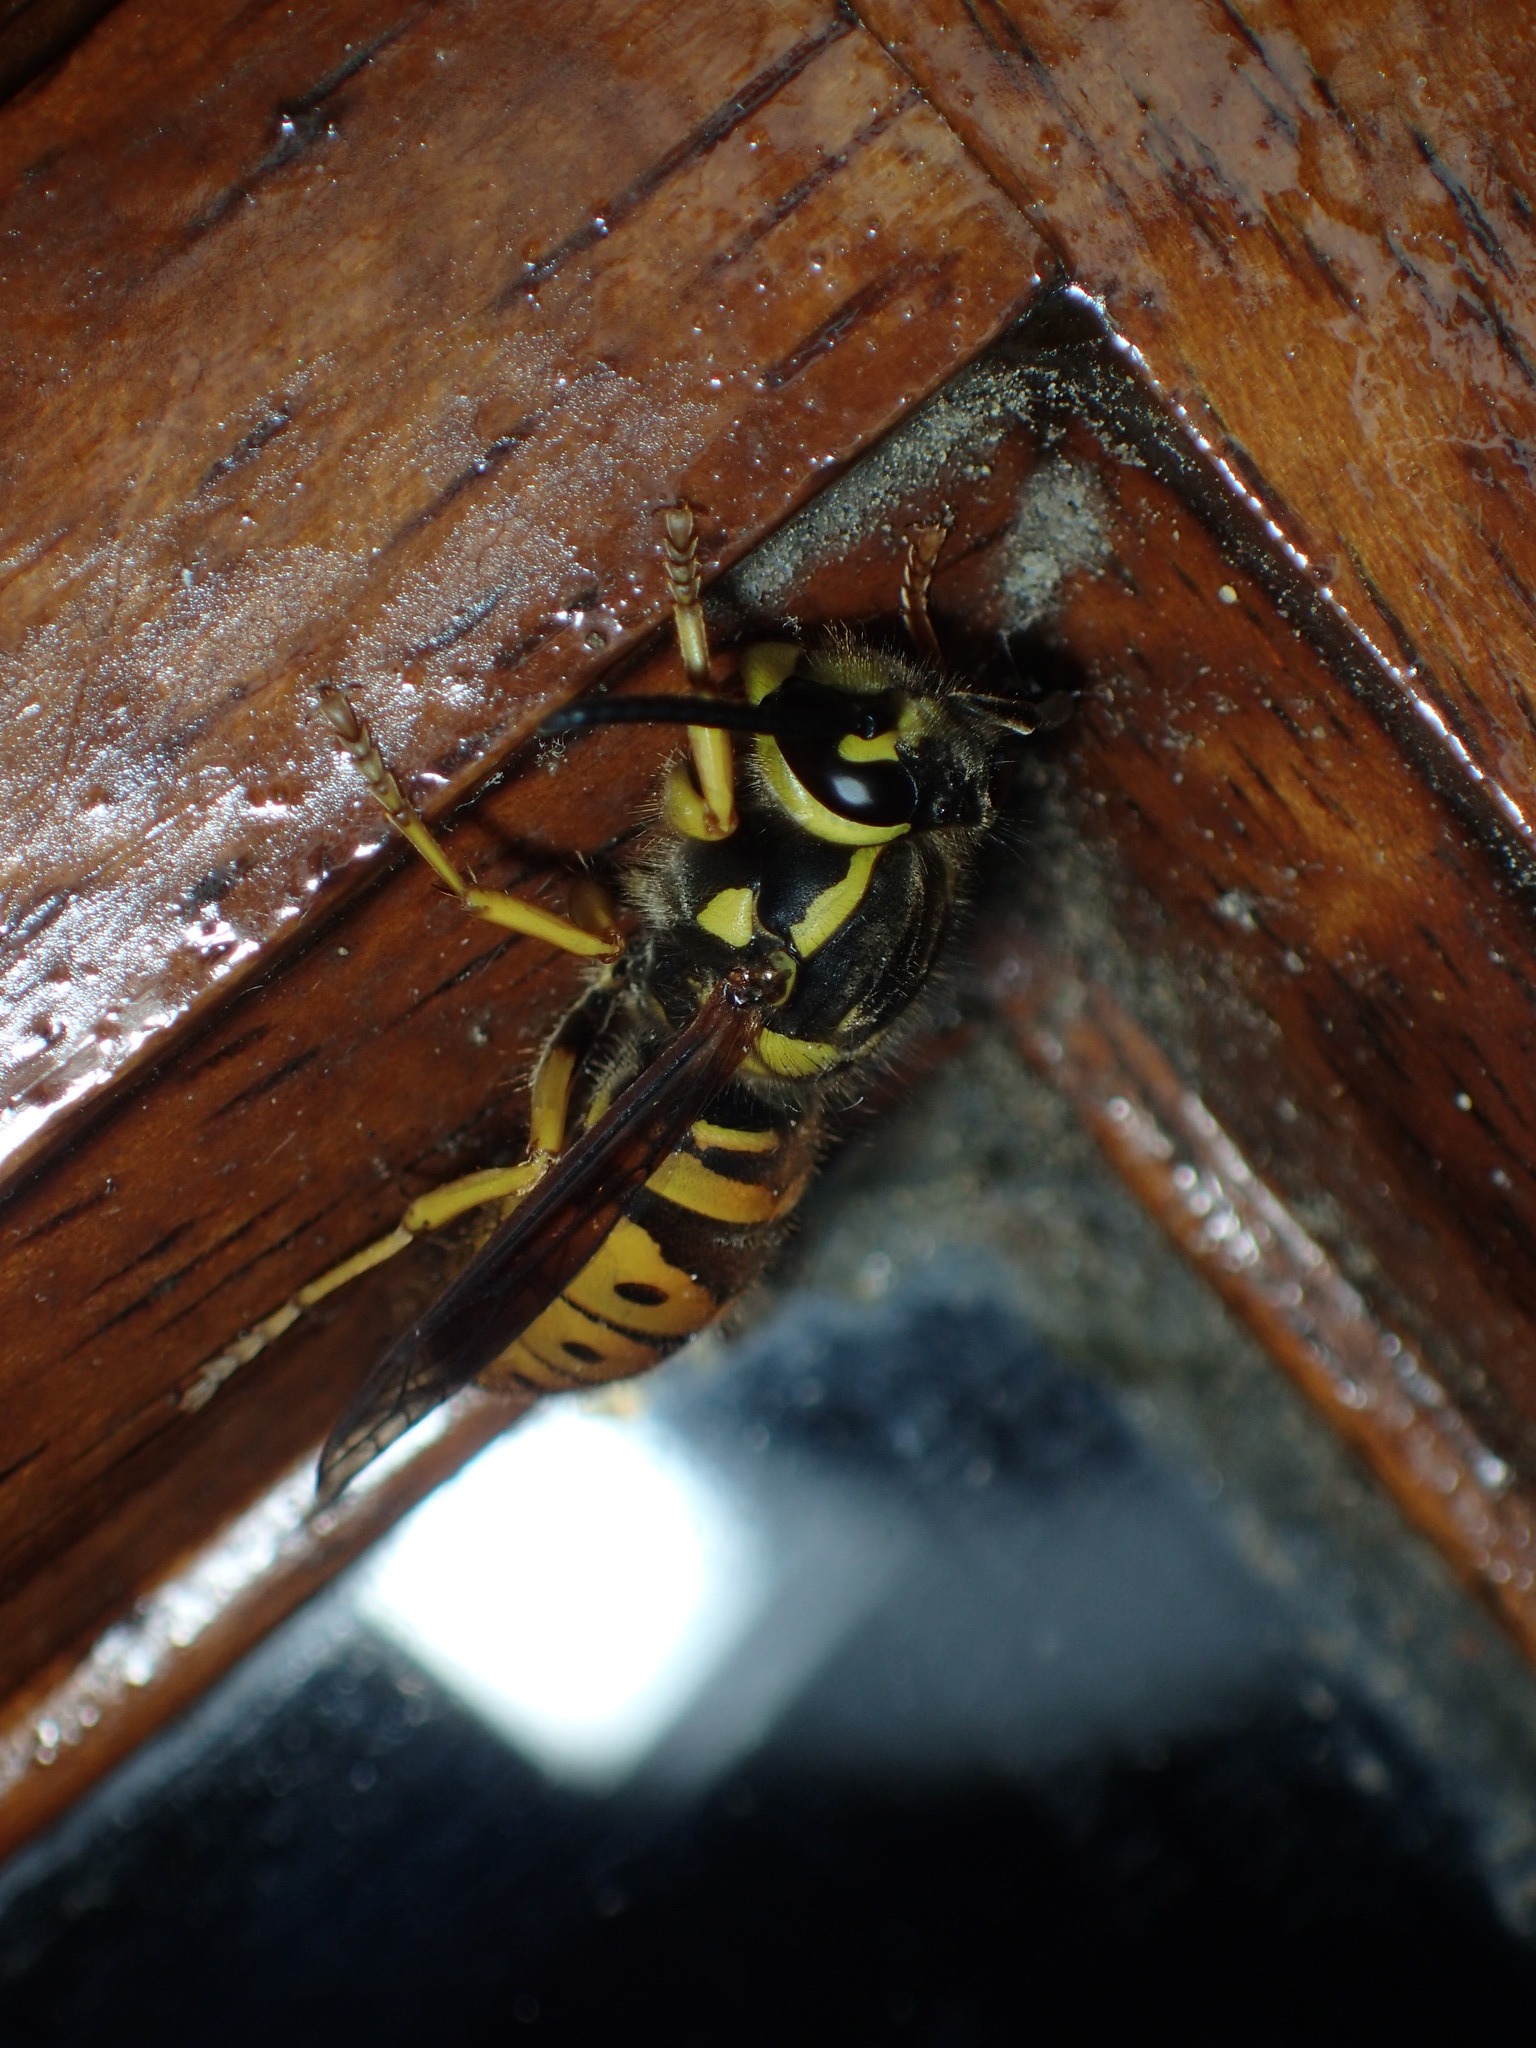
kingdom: Animalia
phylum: Arthropoda
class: Insecta
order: Hymenoptera
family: Vespidae
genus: Vespula
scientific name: Vespula maculifrons
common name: Eastern yellowjacket
